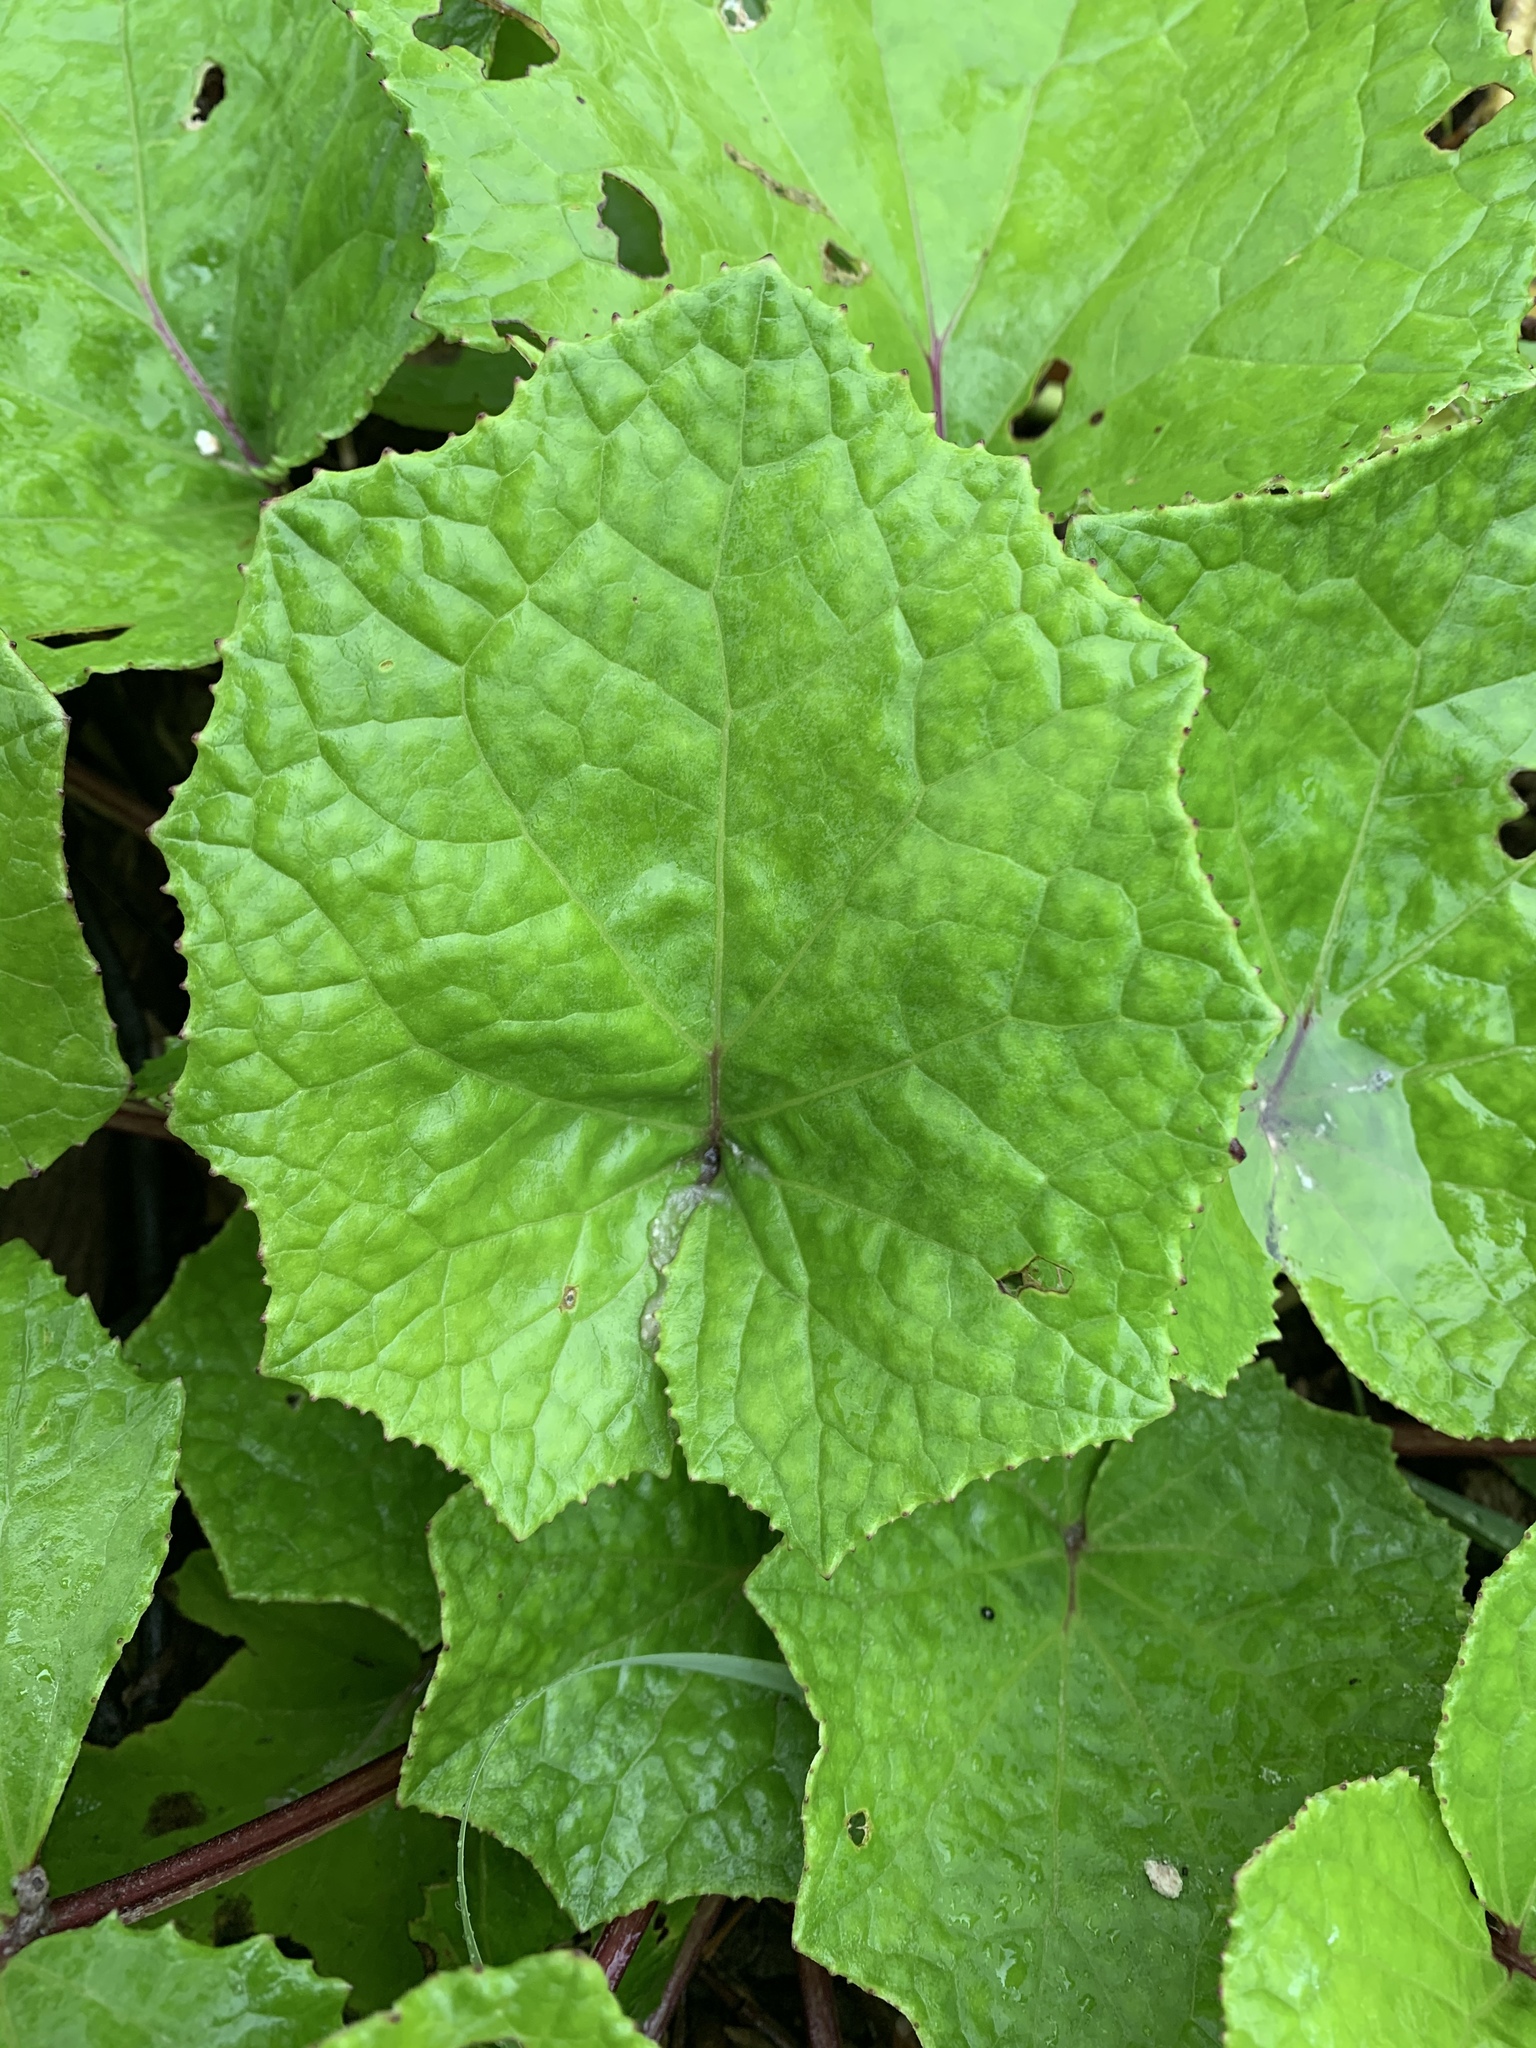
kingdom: Plantae
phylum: Tracheophyta
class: Magnoliopsida
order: Asterales
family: Asteraceae
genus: Tussilago
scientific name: Tussilago farfara
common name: Coltsfoot
